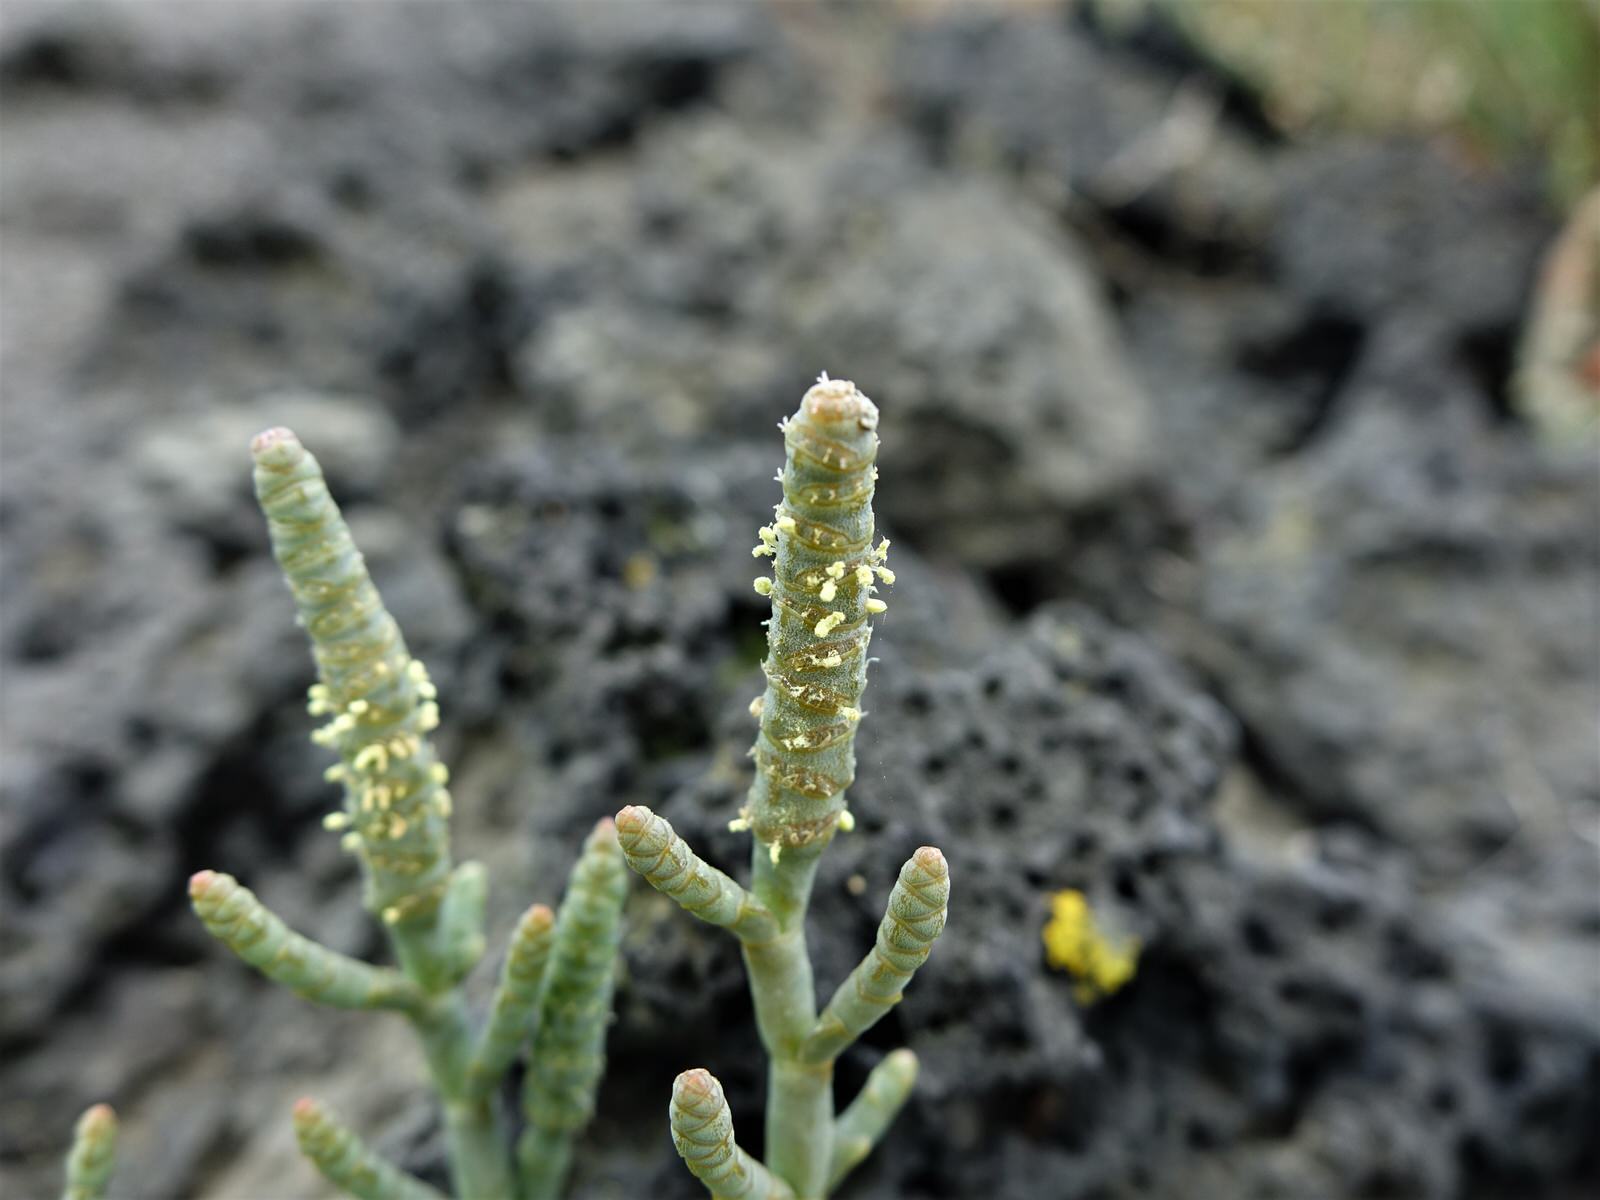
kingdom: Plantae
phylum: Tracheophyta
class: Magnoliopsida
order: Caryophyllales
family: Amaranthaceae
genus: Salicornia
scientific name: Salicornia quinqueflora
